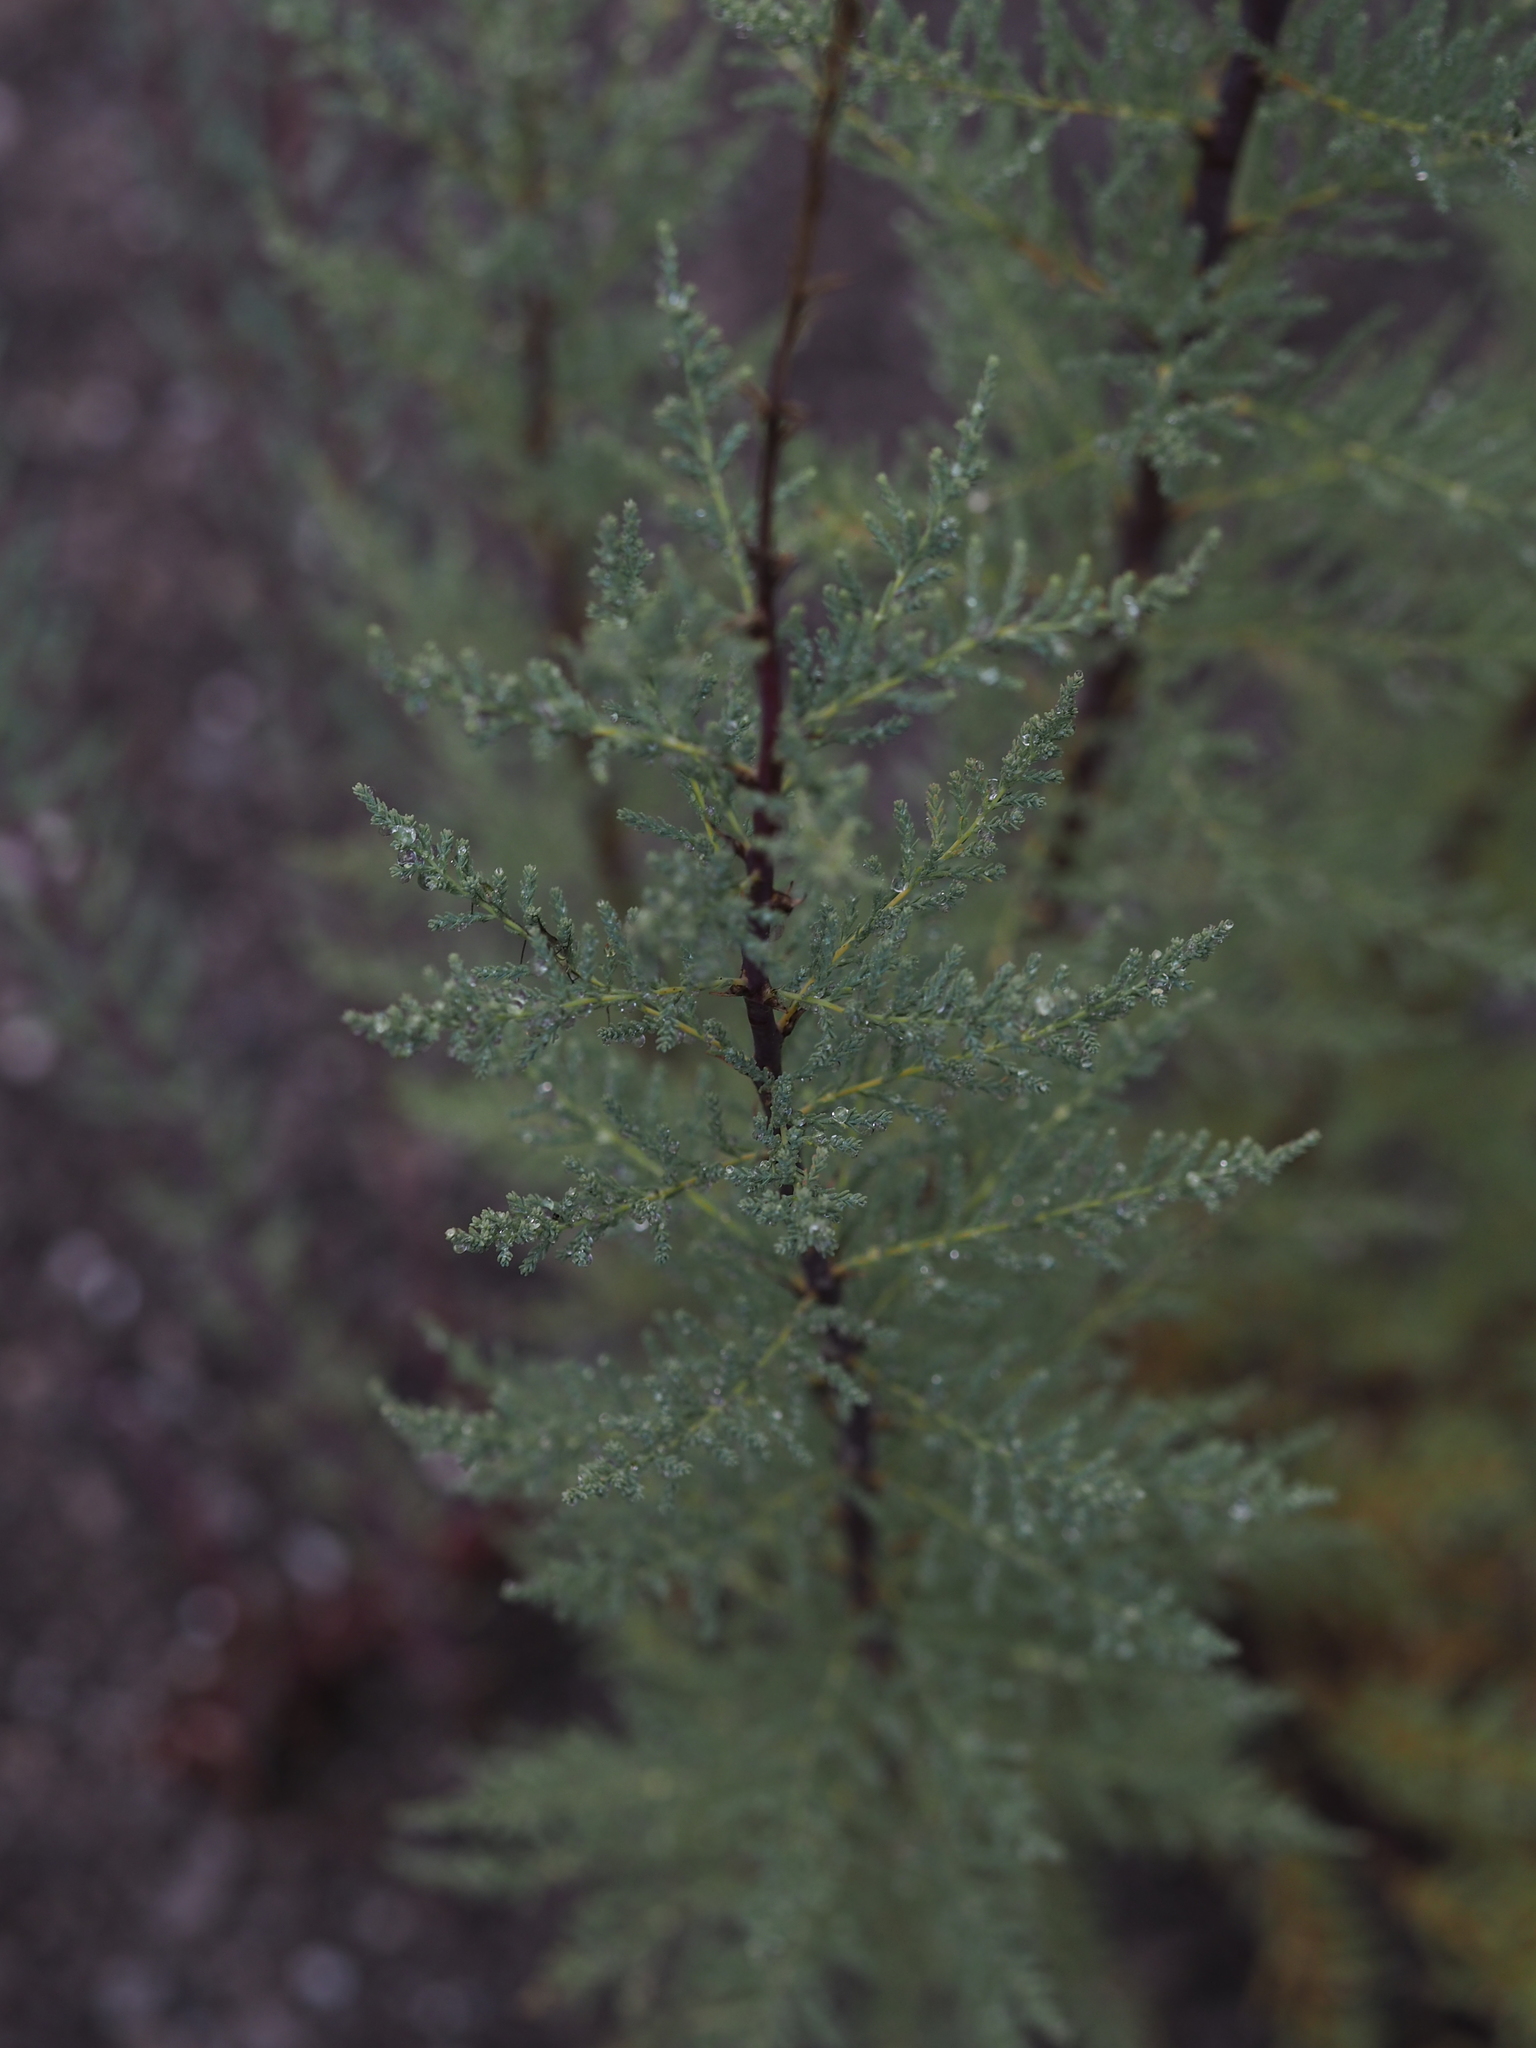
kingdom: Plantae
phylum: Tracheophyta
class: Magnoliopsida
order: Caryophyllales
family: Tamaricaceae
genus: Myricaria
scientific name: Myricaria germanica
